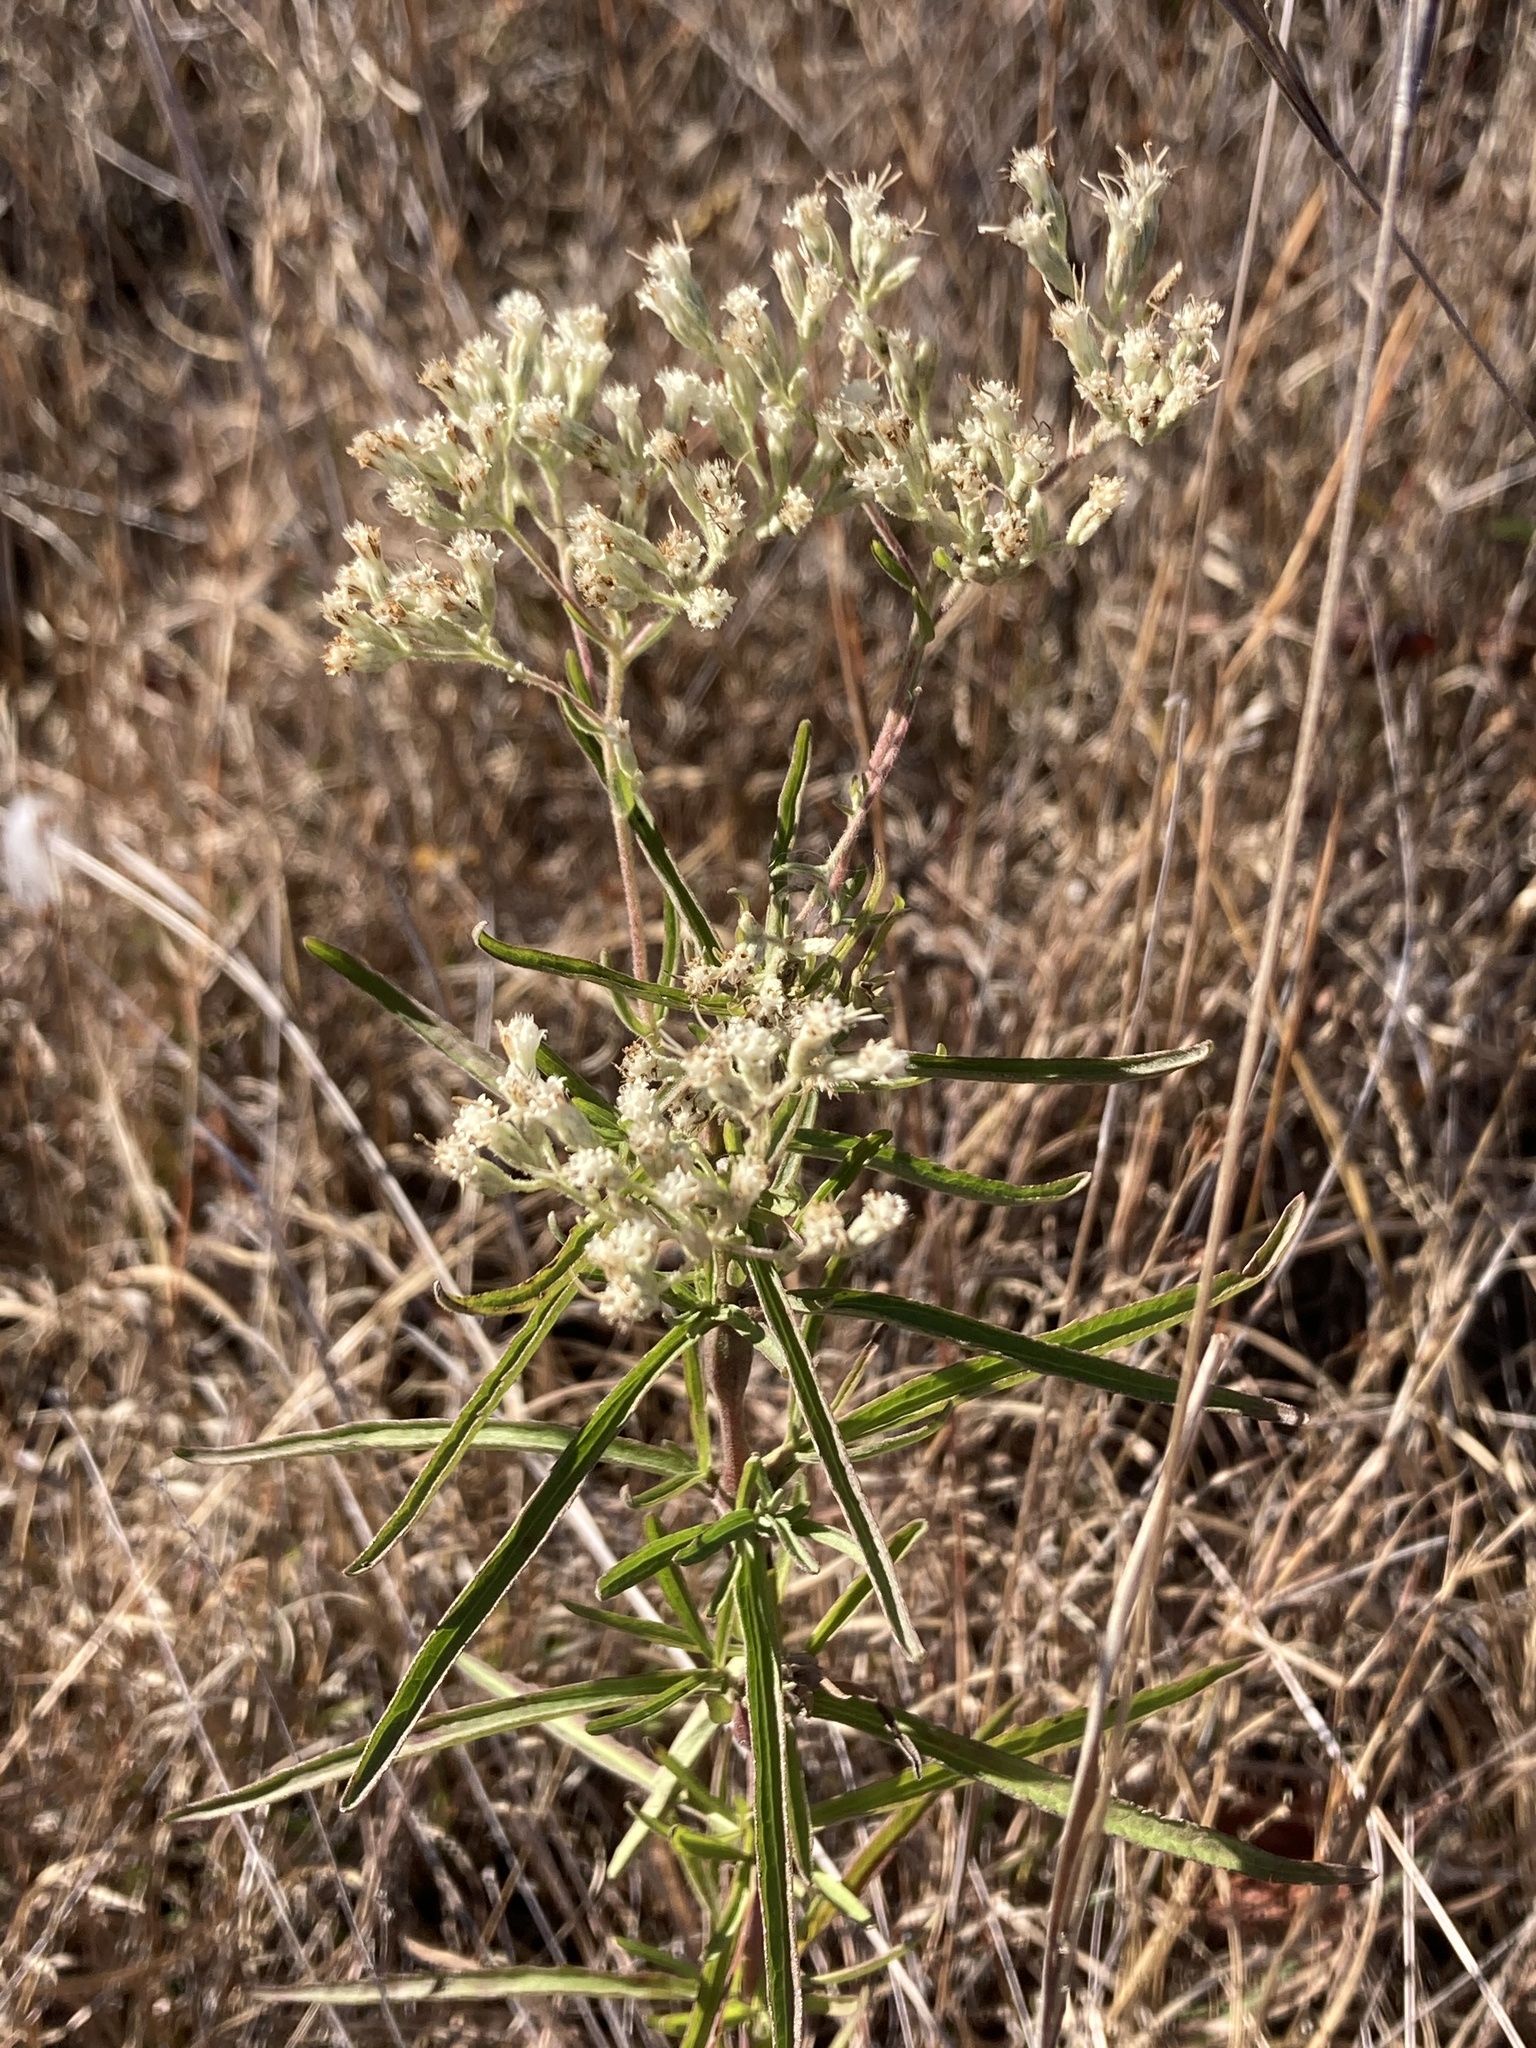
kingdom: Plantae
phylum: Tracheophyta
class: Magnoliopsida
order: Asterales
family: Asteraceae
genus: Eupatorium
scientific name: Eupatorium torreyanum
